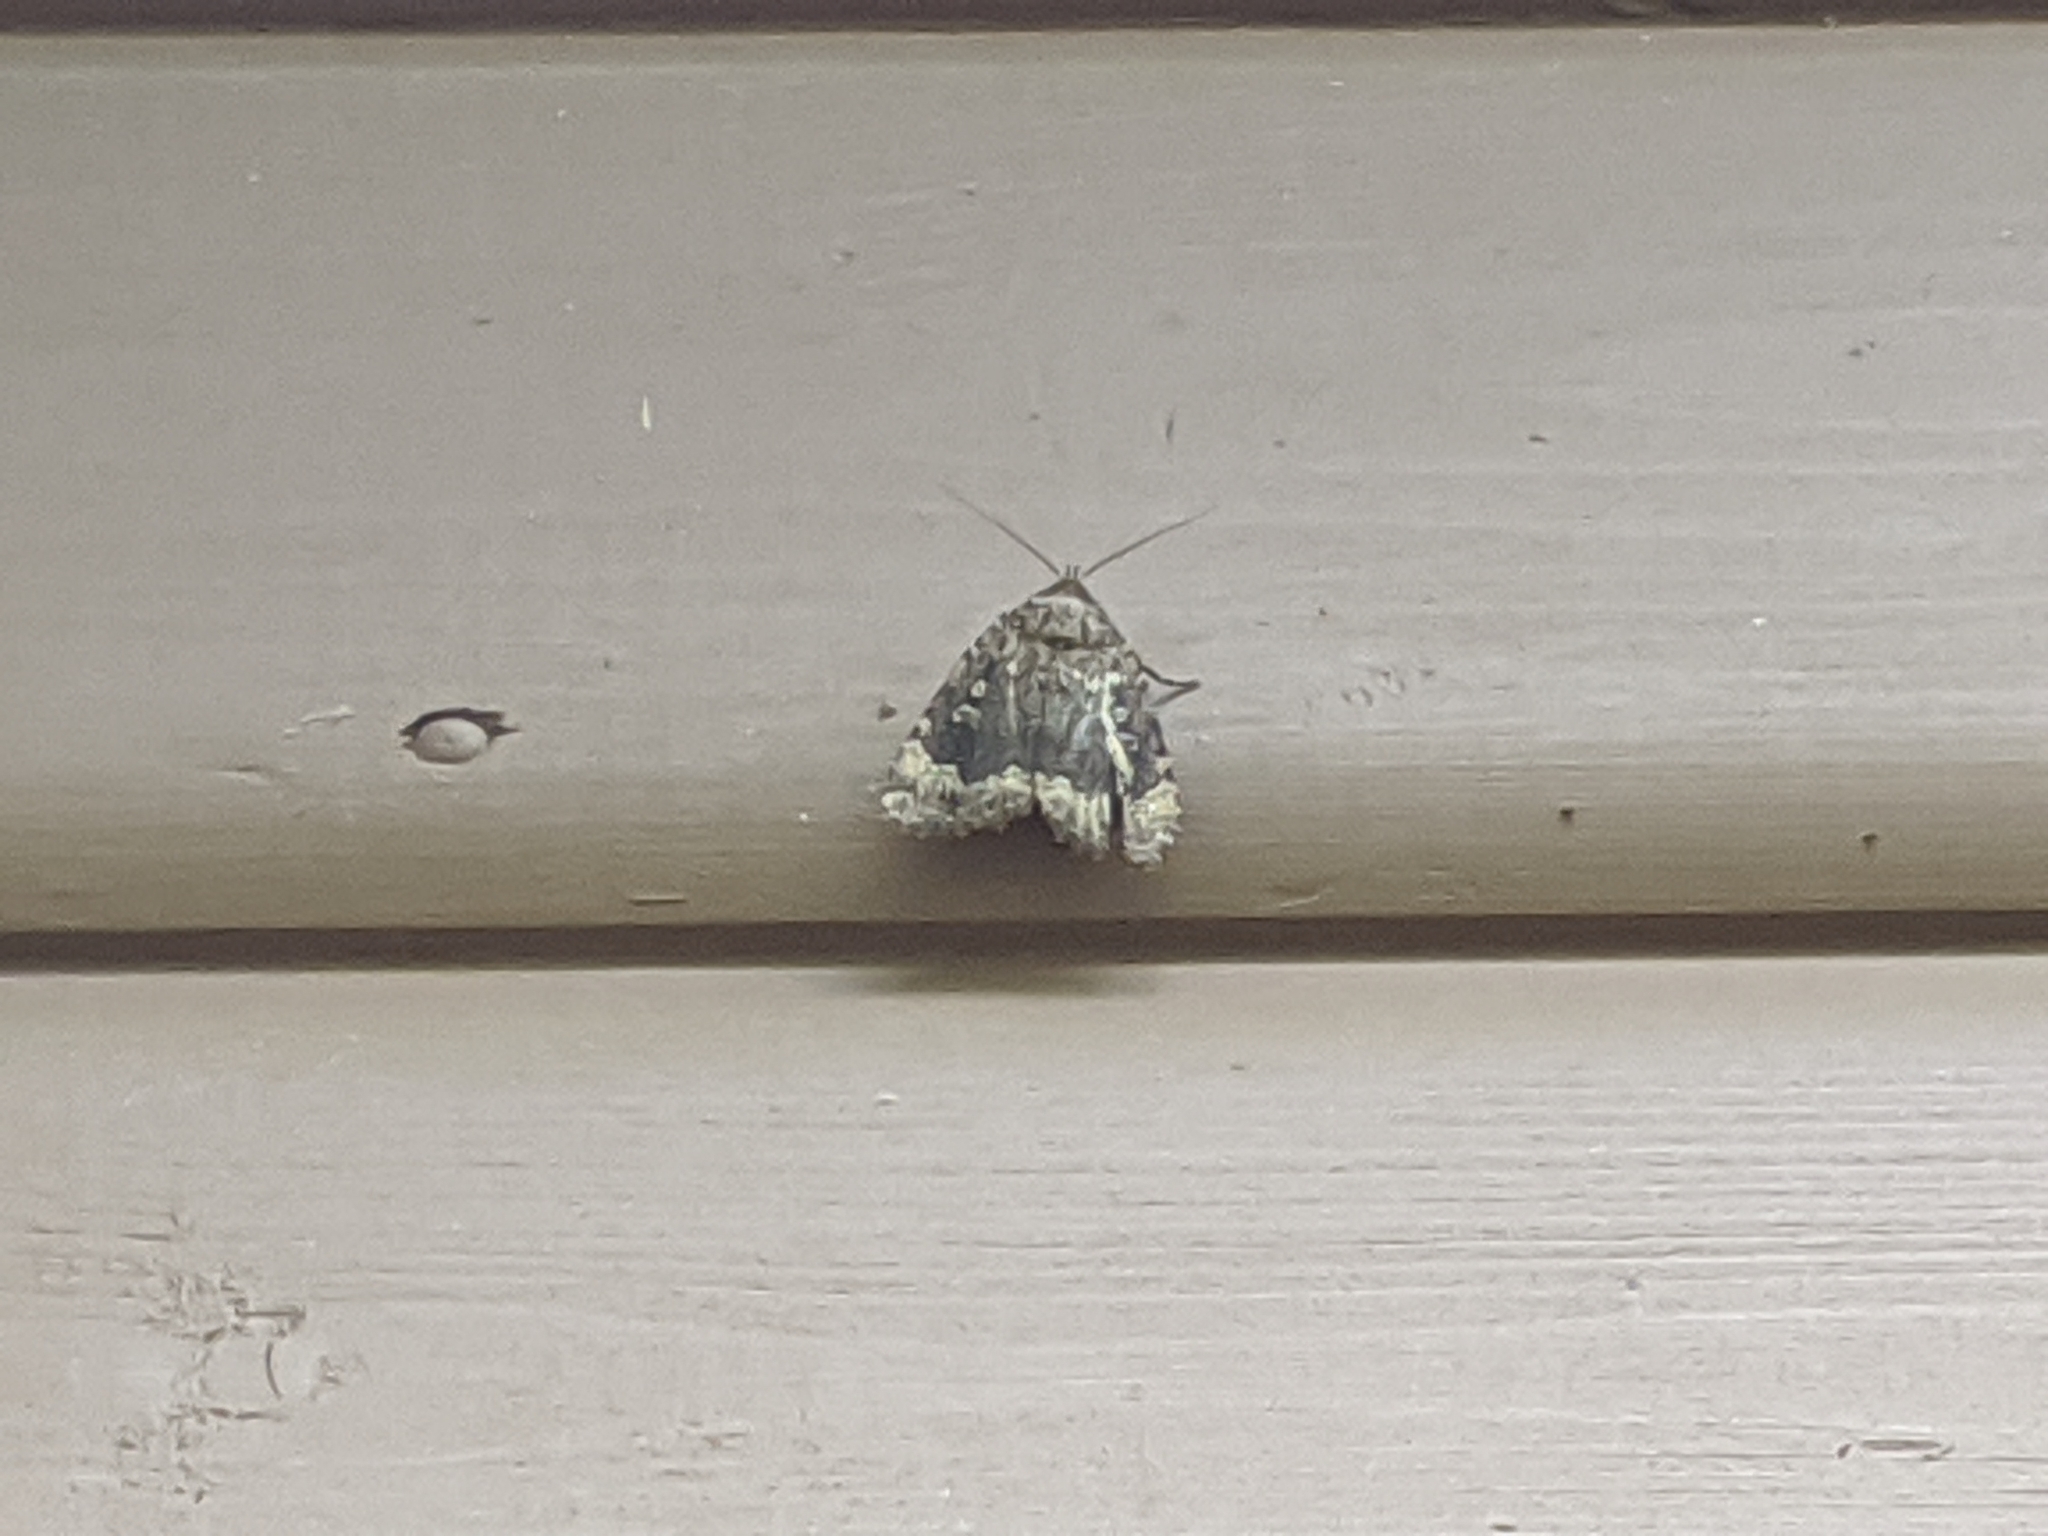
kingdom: Animalia
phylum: Arthropoda
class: Insecta
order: Lepidoptera
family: Noctuidae
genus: Amphipyra
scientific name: Amphipyra pyramidoides
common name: American copper underwing
